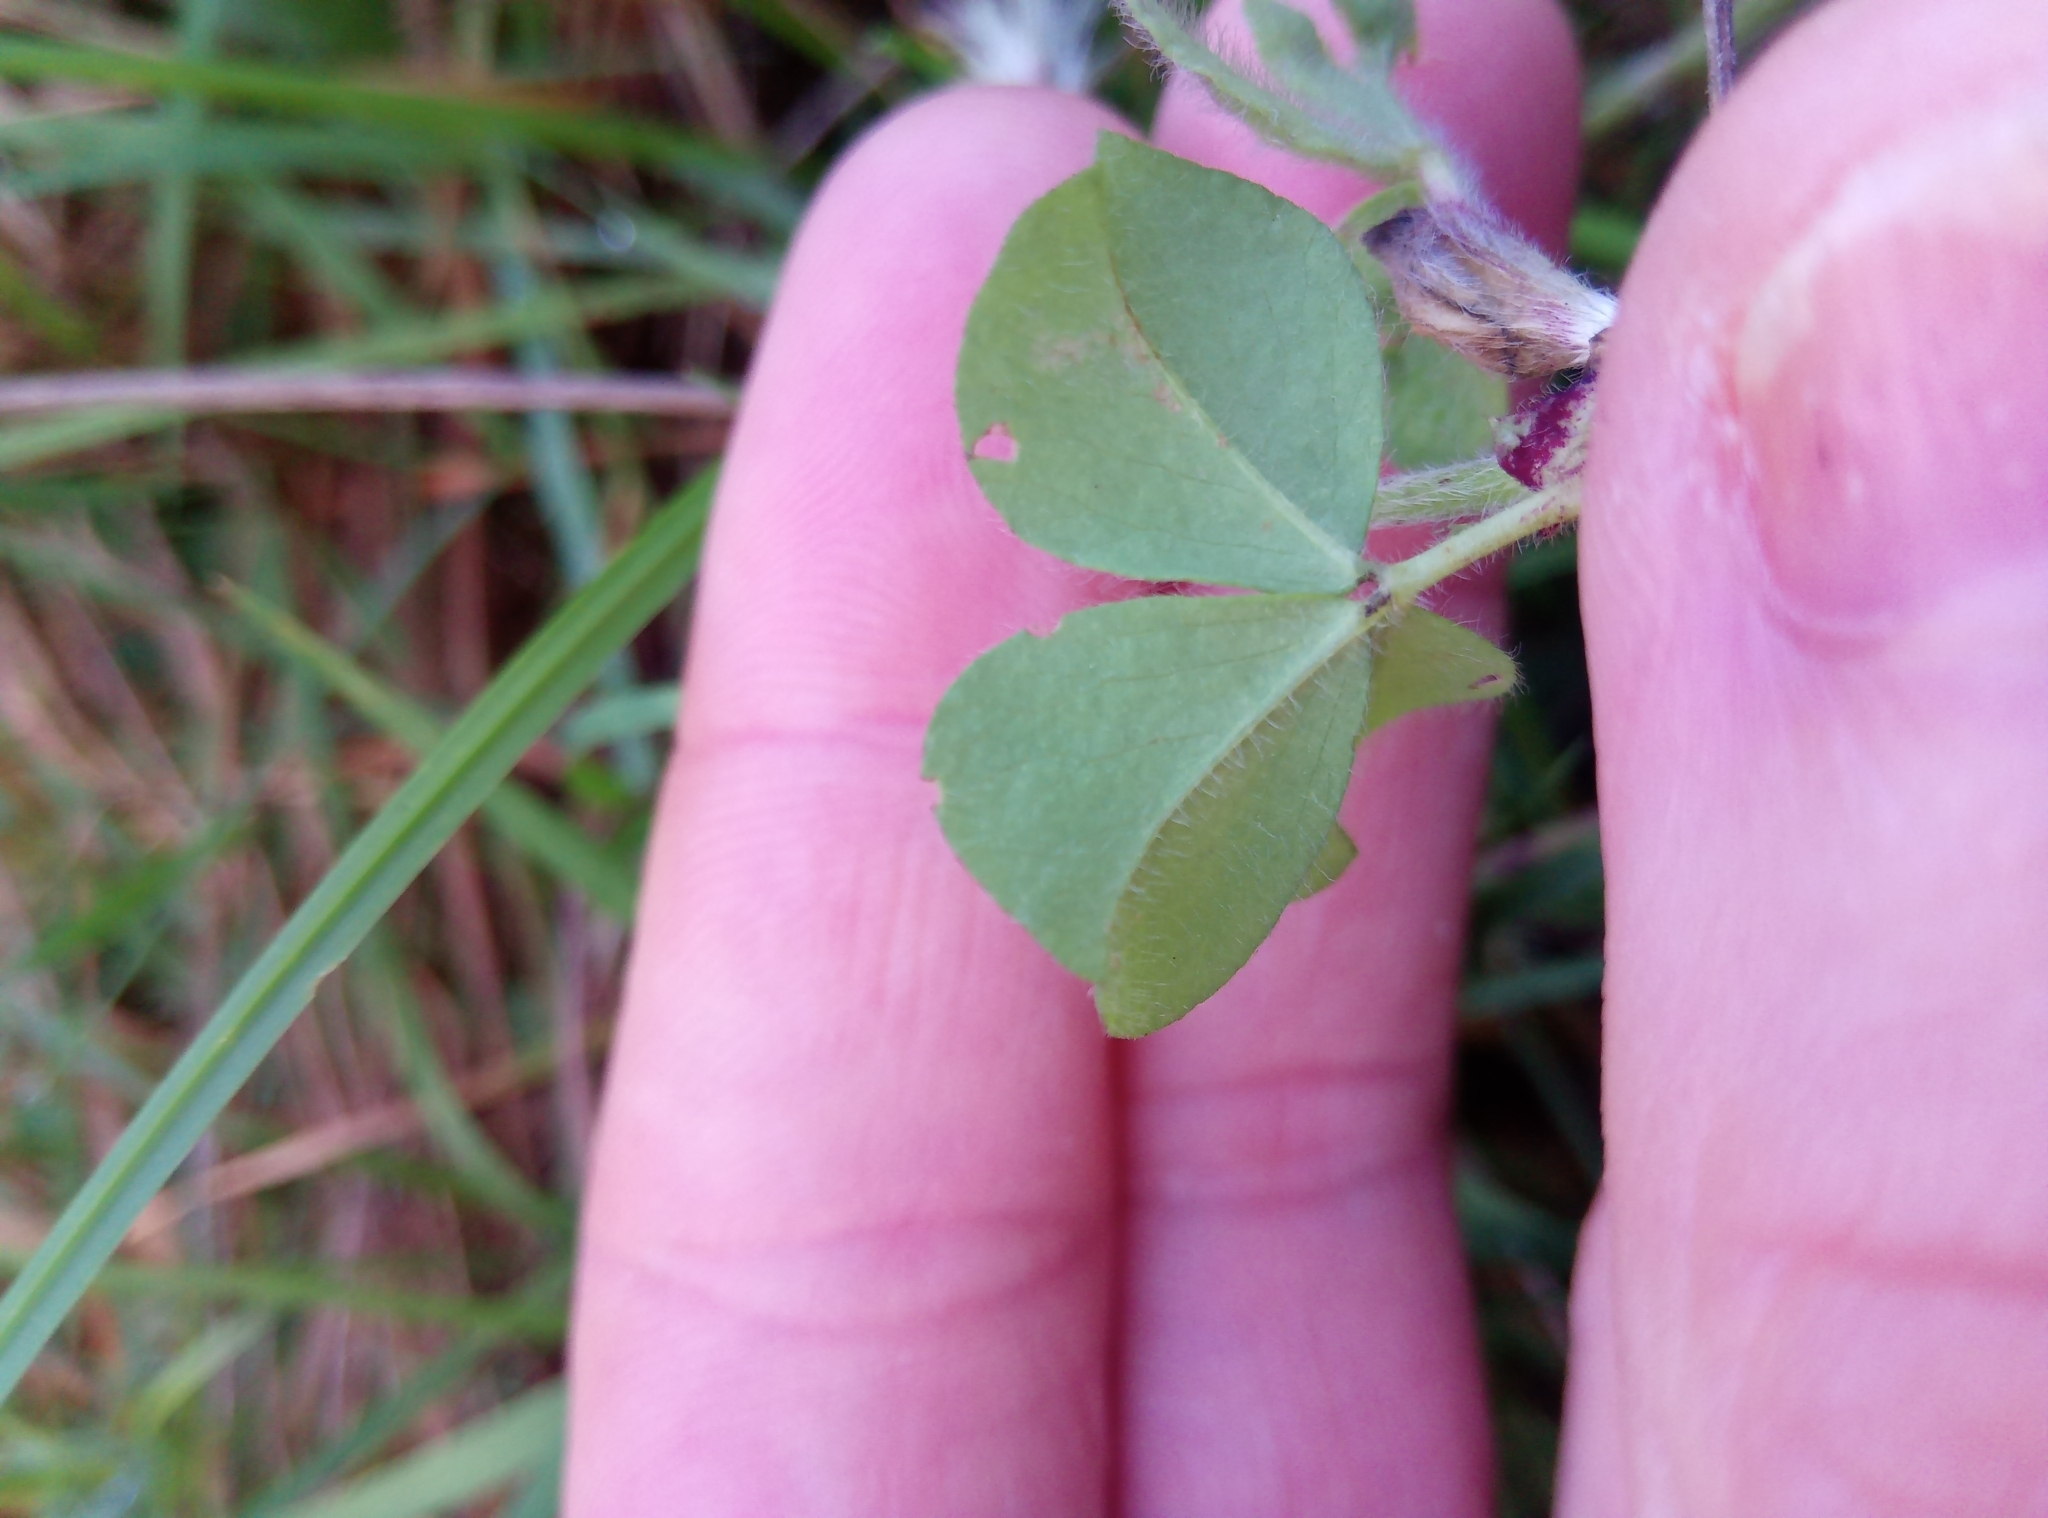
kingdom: Plantae
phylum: Tracheophyta
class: Magnoliopsida
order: Fabales
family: Fabaceae
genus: Trifolium
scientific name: Trifolium incarnatum
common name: Crimson clover
